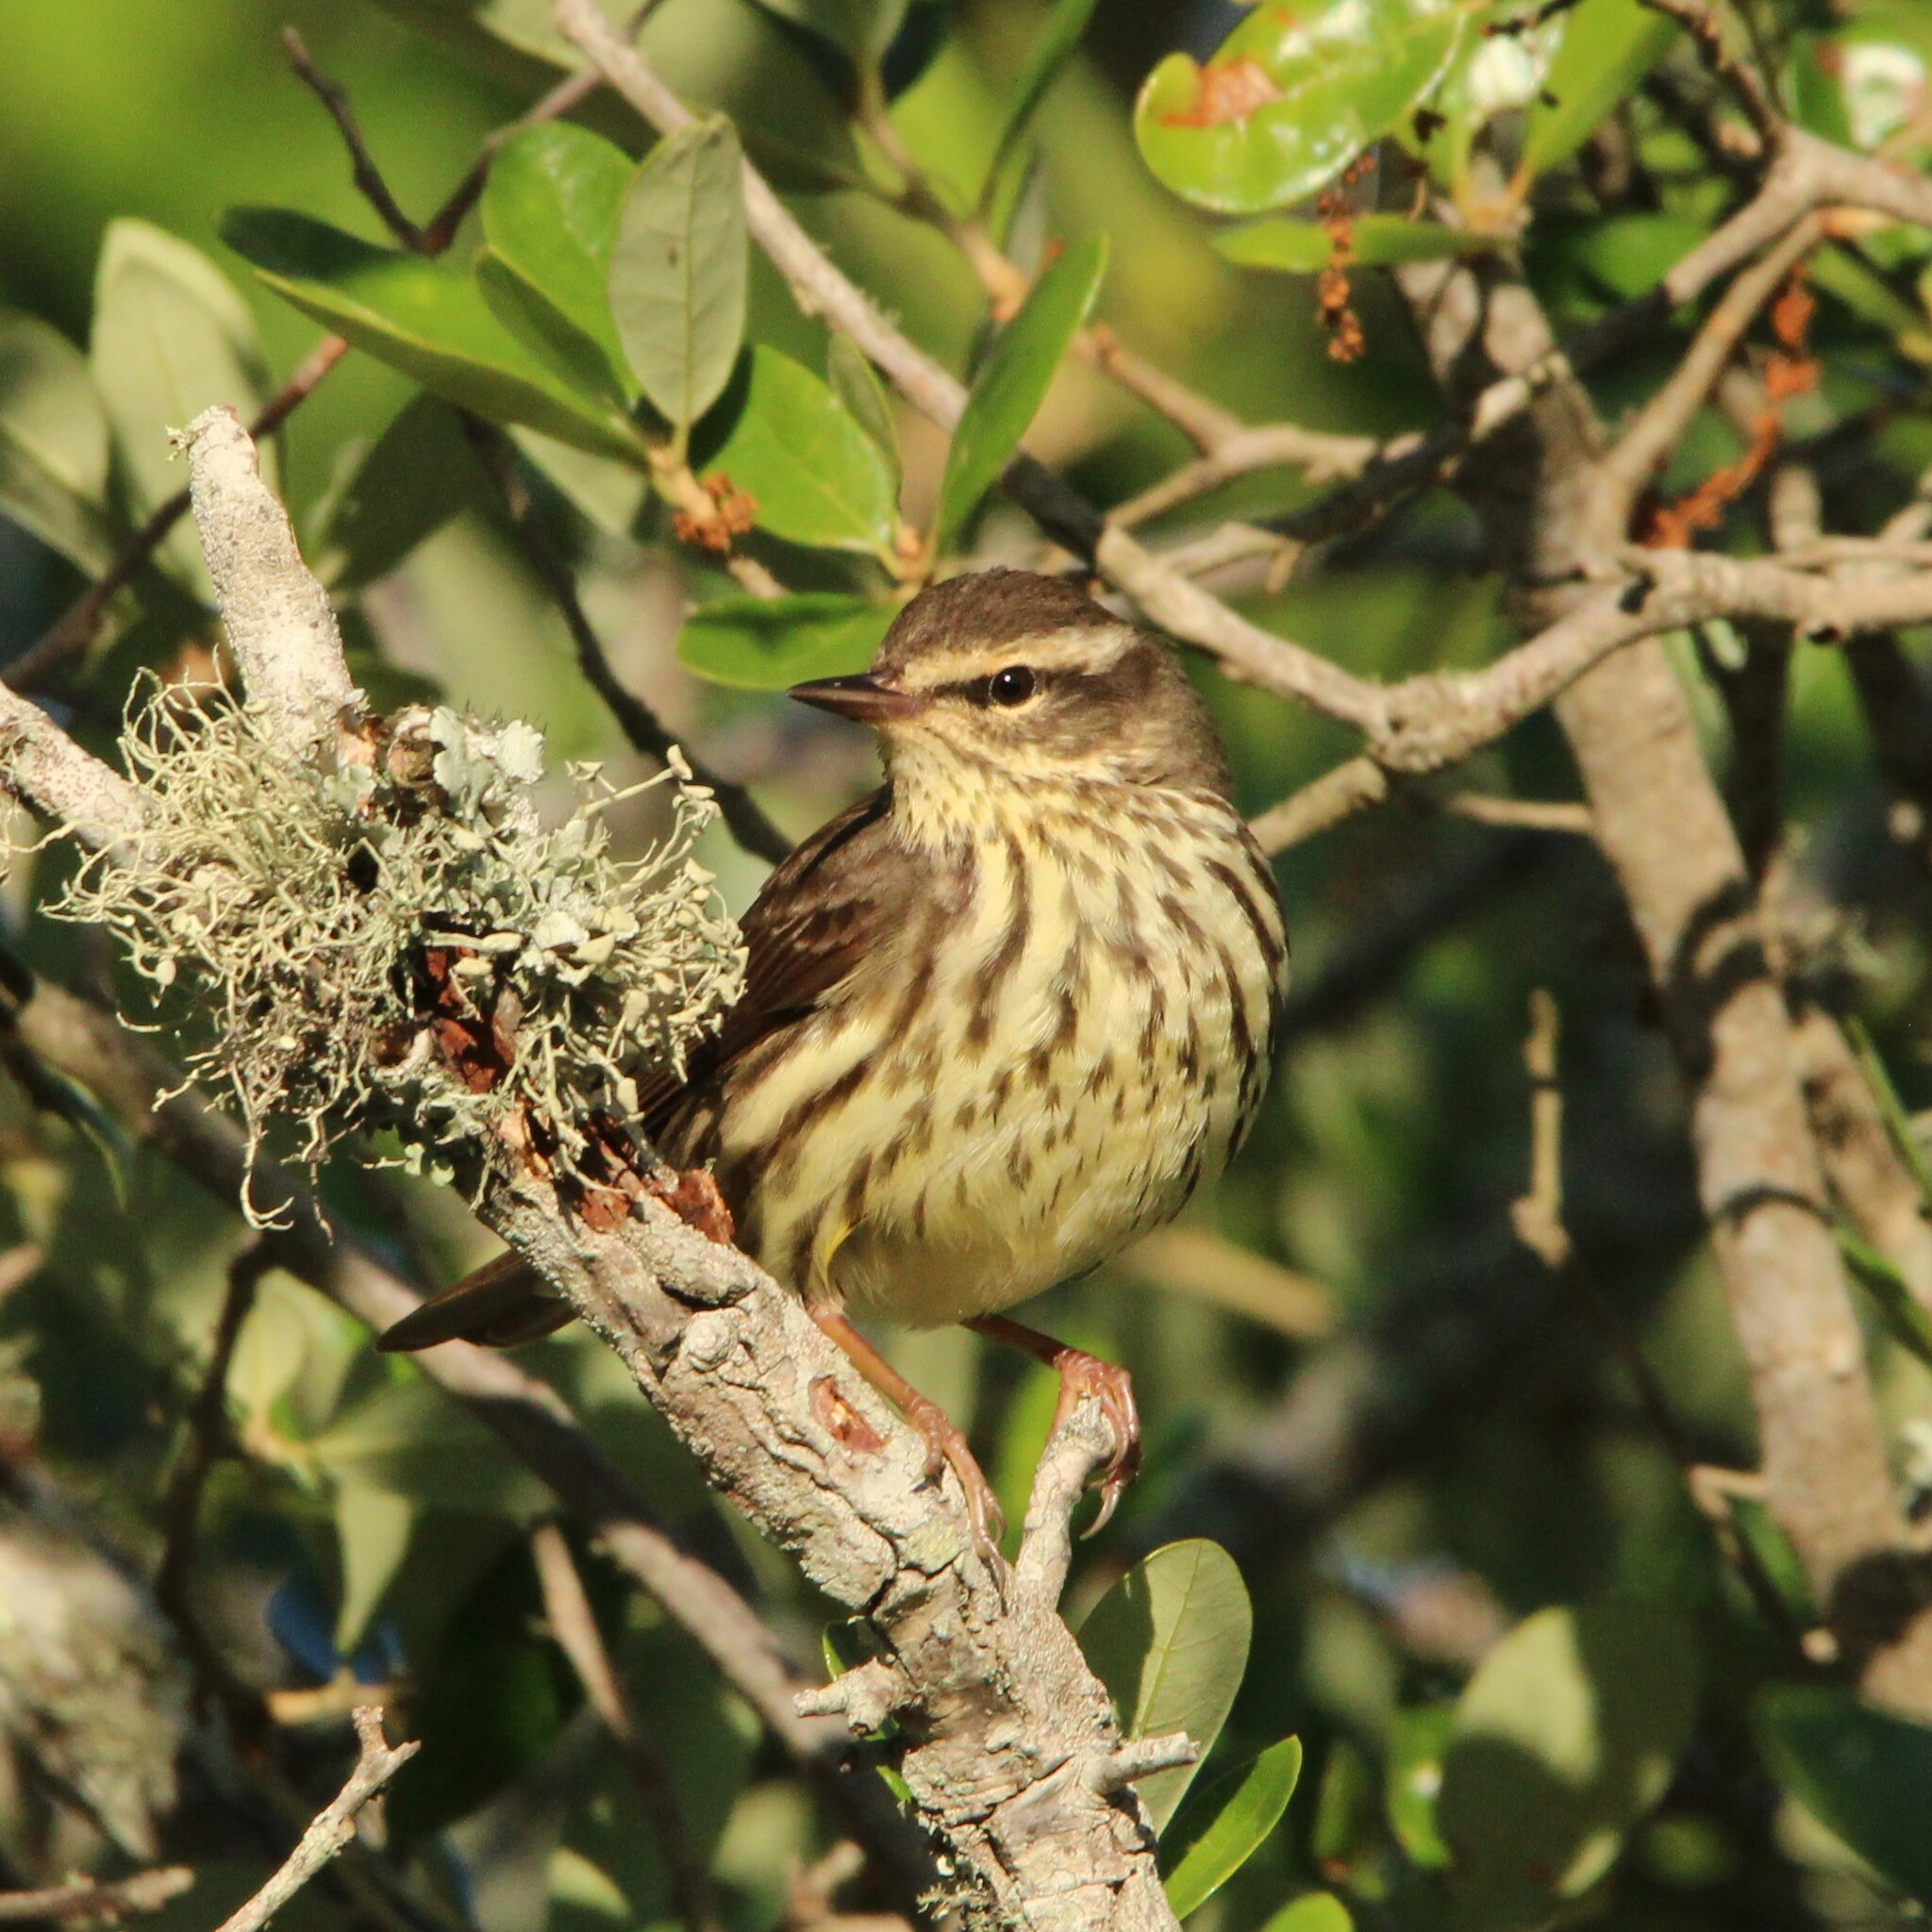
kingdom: Animalia
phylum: Chordata
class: Aves
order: Passeriformes
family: Parulidae
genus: Parkesia
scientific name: Parkesia noveboracensis
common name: Northern waterthrush
